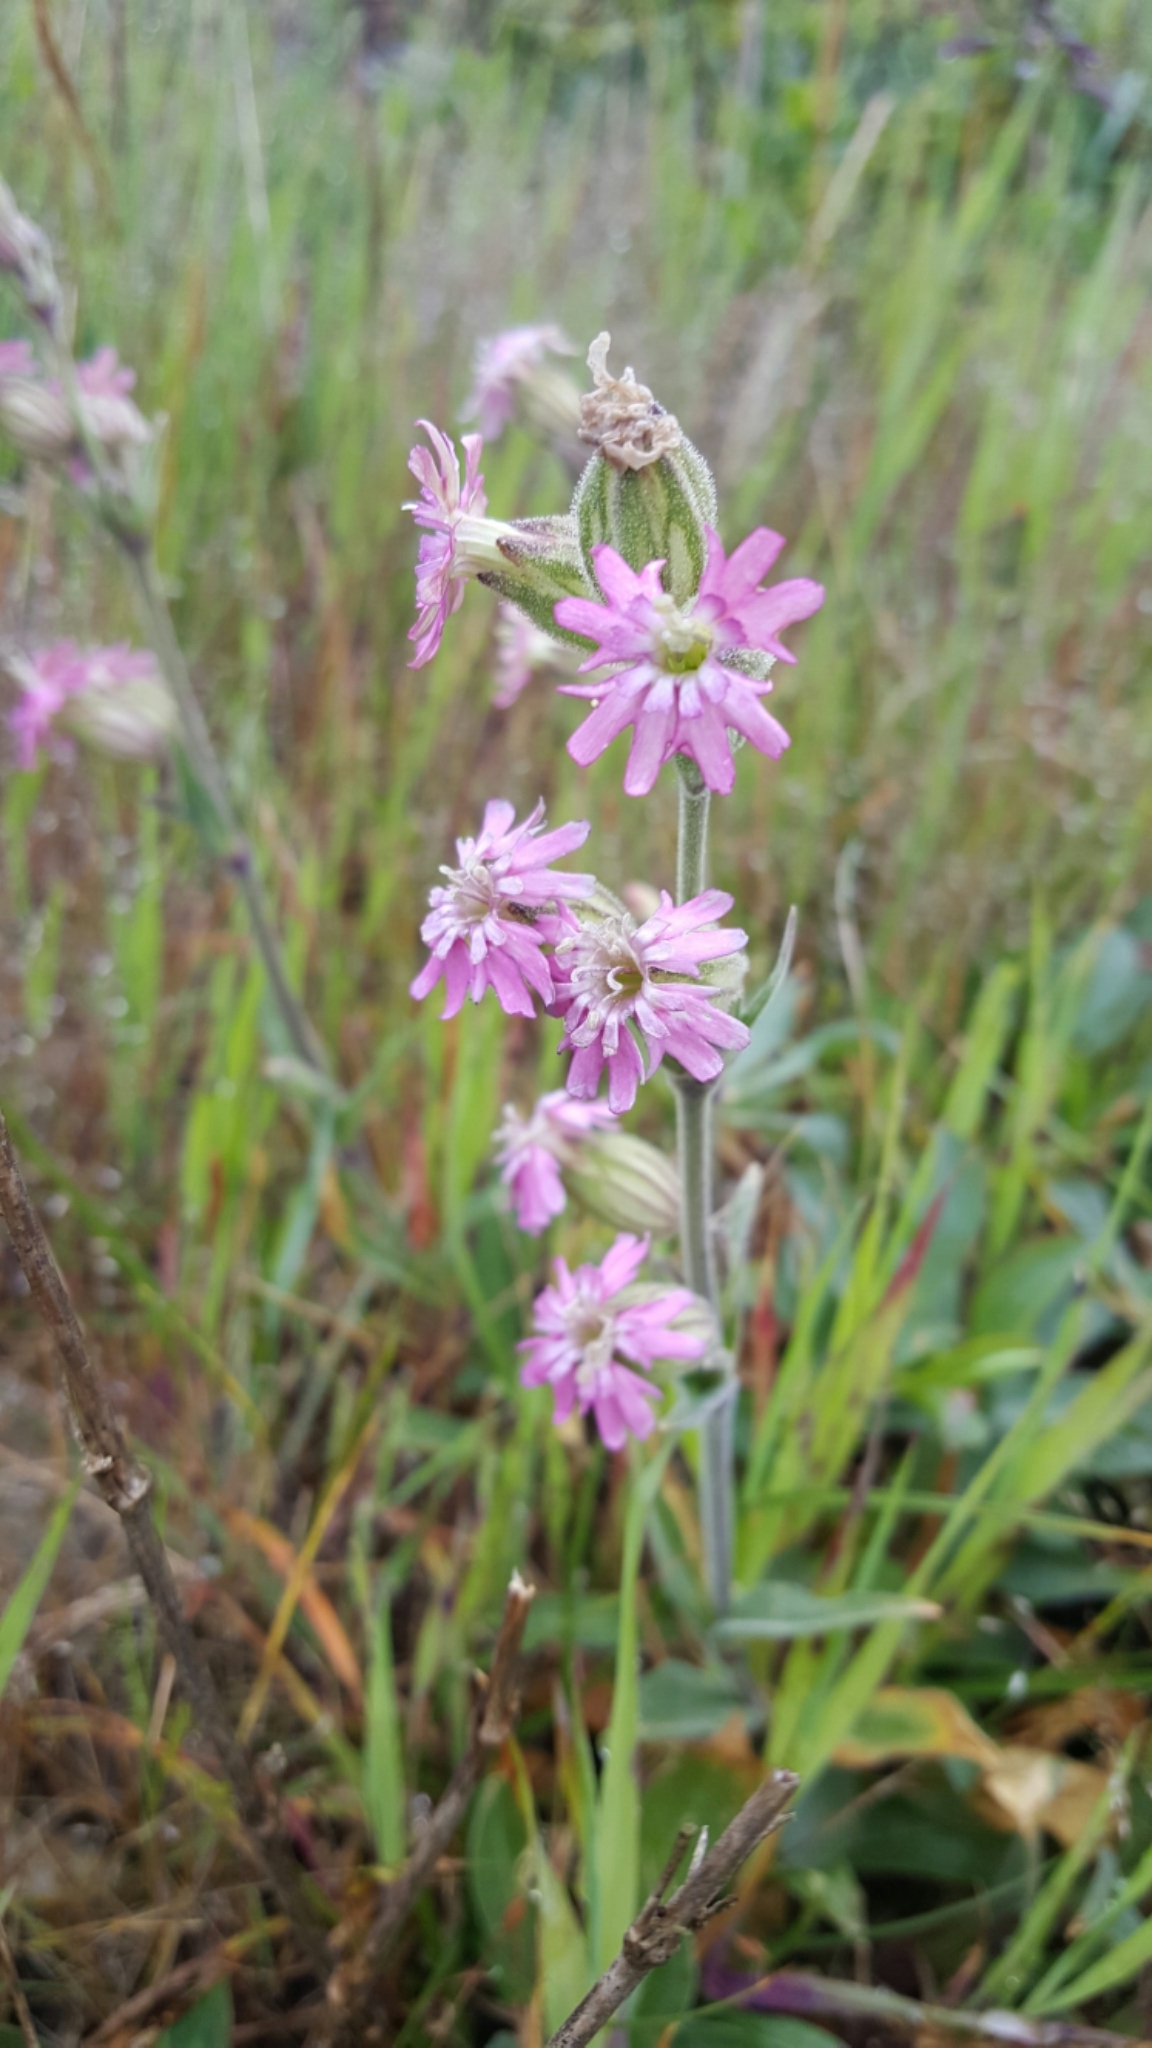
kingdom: Plantae
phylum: Tracheophyta
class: Magnoliopsida
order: Caryophyllales
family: Caryophyllaceae
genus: Silene
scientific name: Silene scouleri
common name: Scouler's campion
